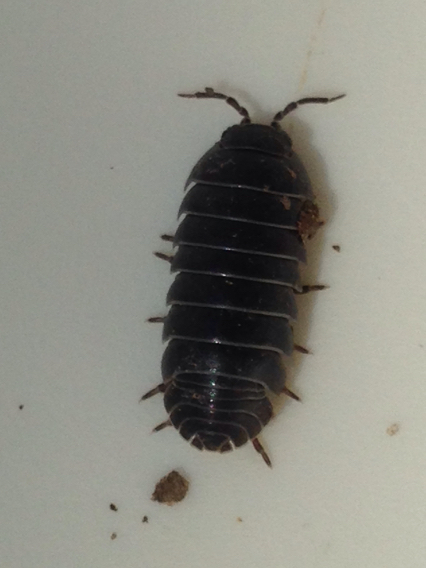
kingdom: Animalia
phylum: Arthropoda
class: Malacostraca
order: Isopoda
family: Armadillidiidae
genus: Armadillidium
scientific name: Armadillidium vulgare
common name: Common pill woodlouse
